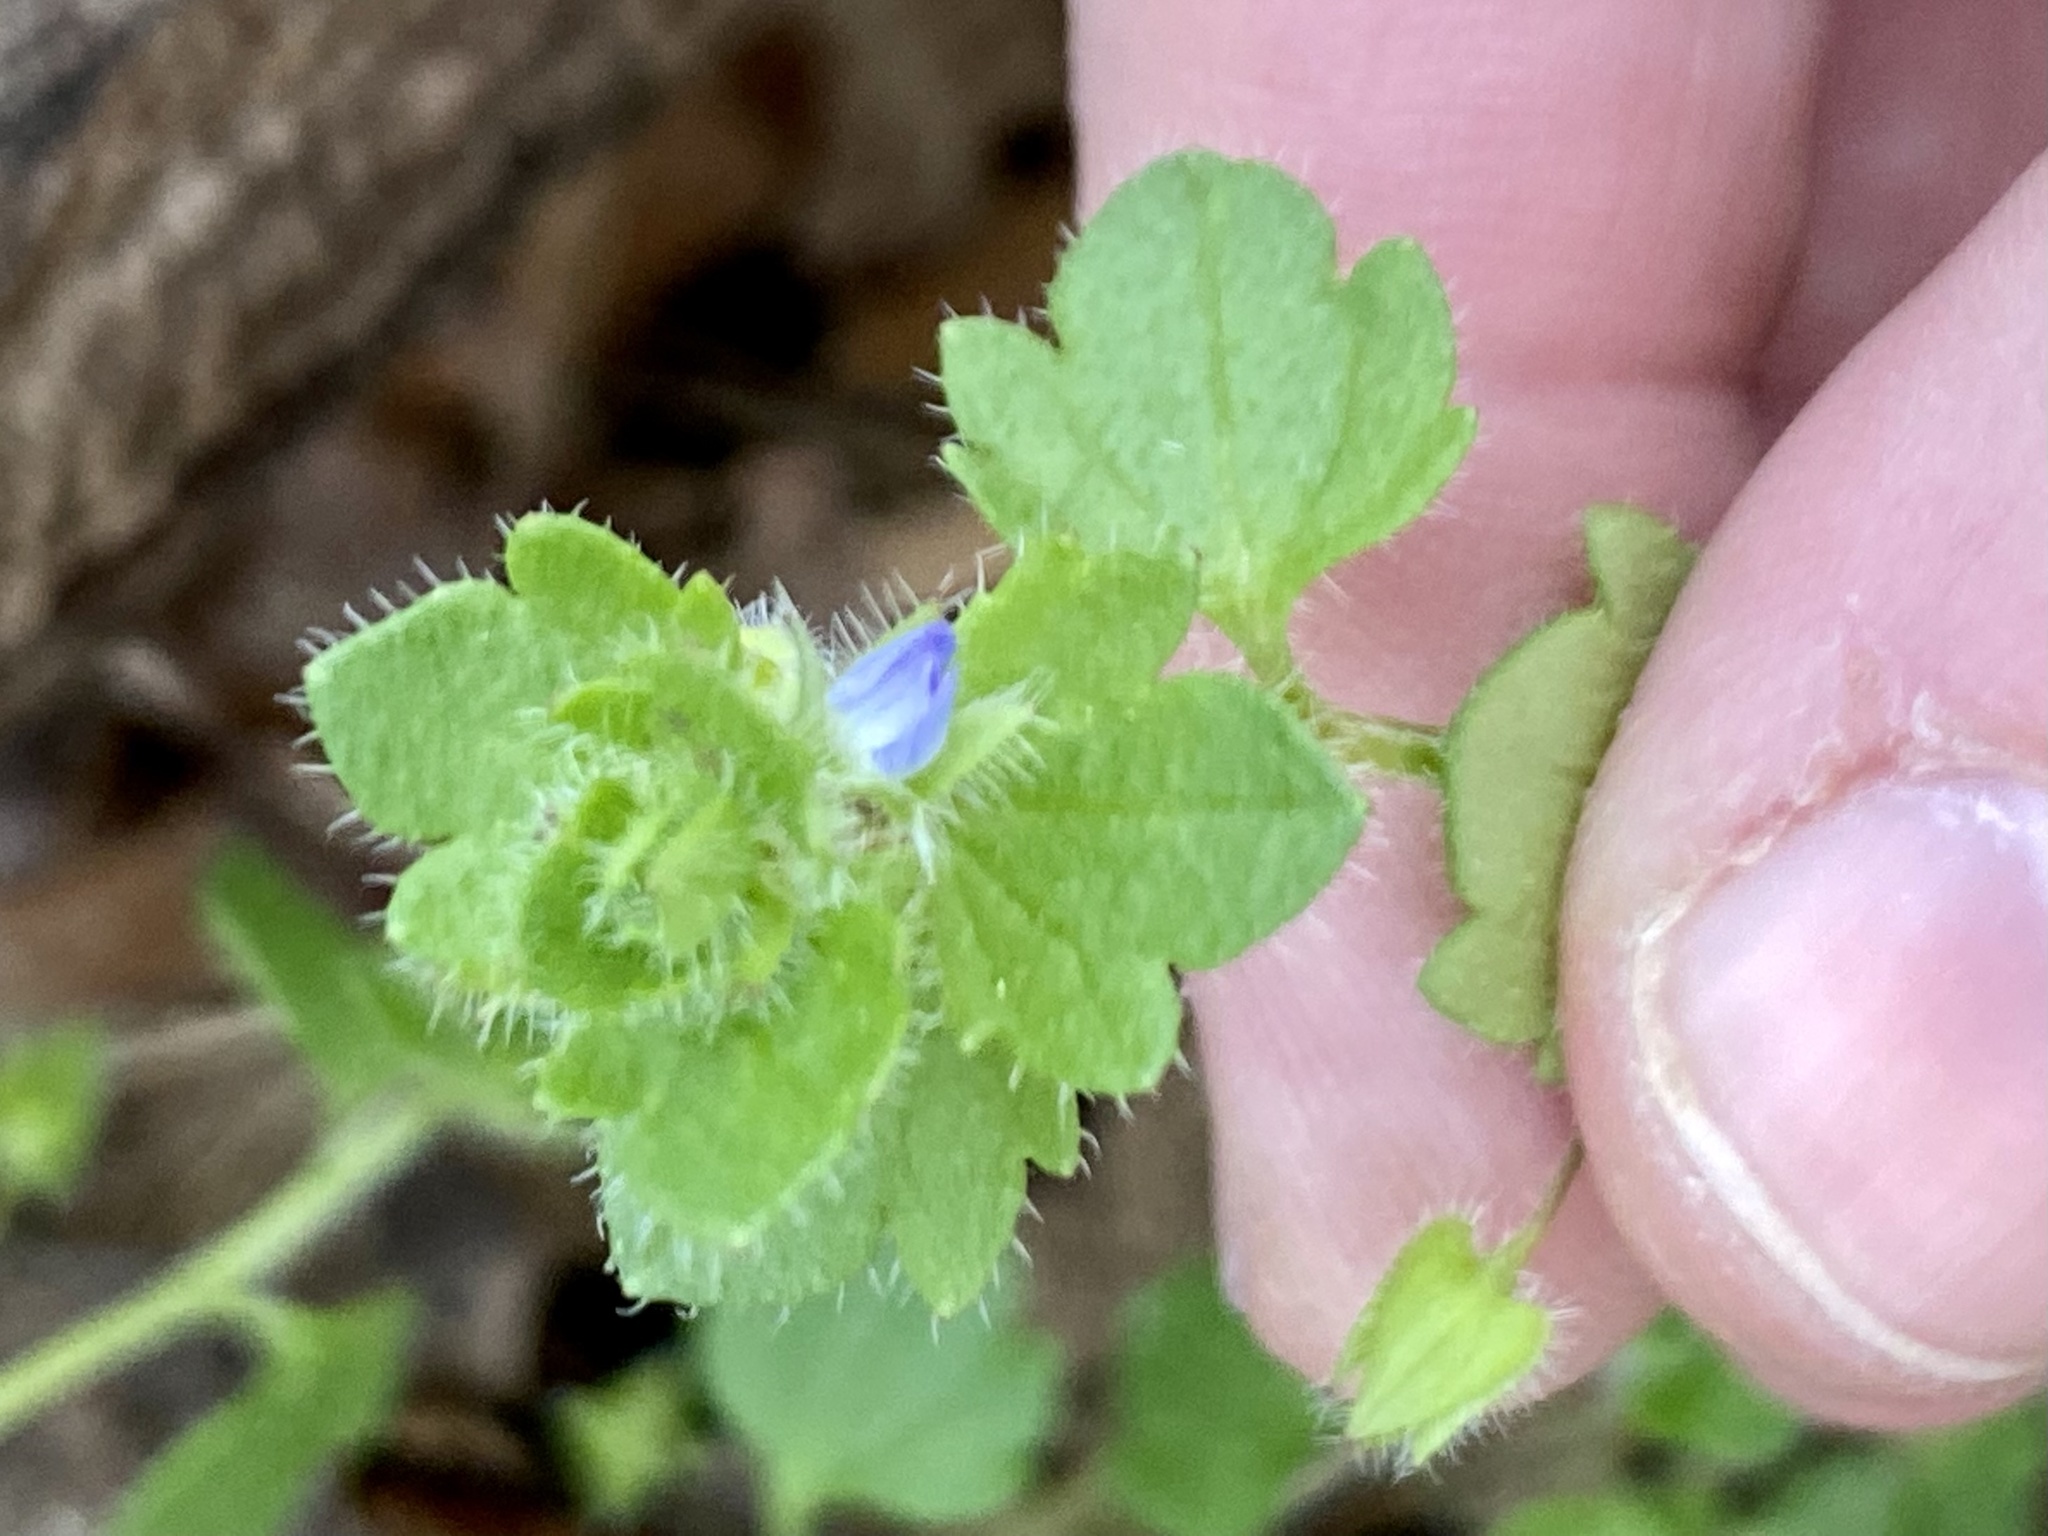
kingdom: Plantae
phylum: Tracheophyta
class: Magnoliopsida
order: Lamiales
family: Plantaginaceae
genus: Veronica
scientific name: Veronica hederifolia
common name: Ivy-leaved speedwell
